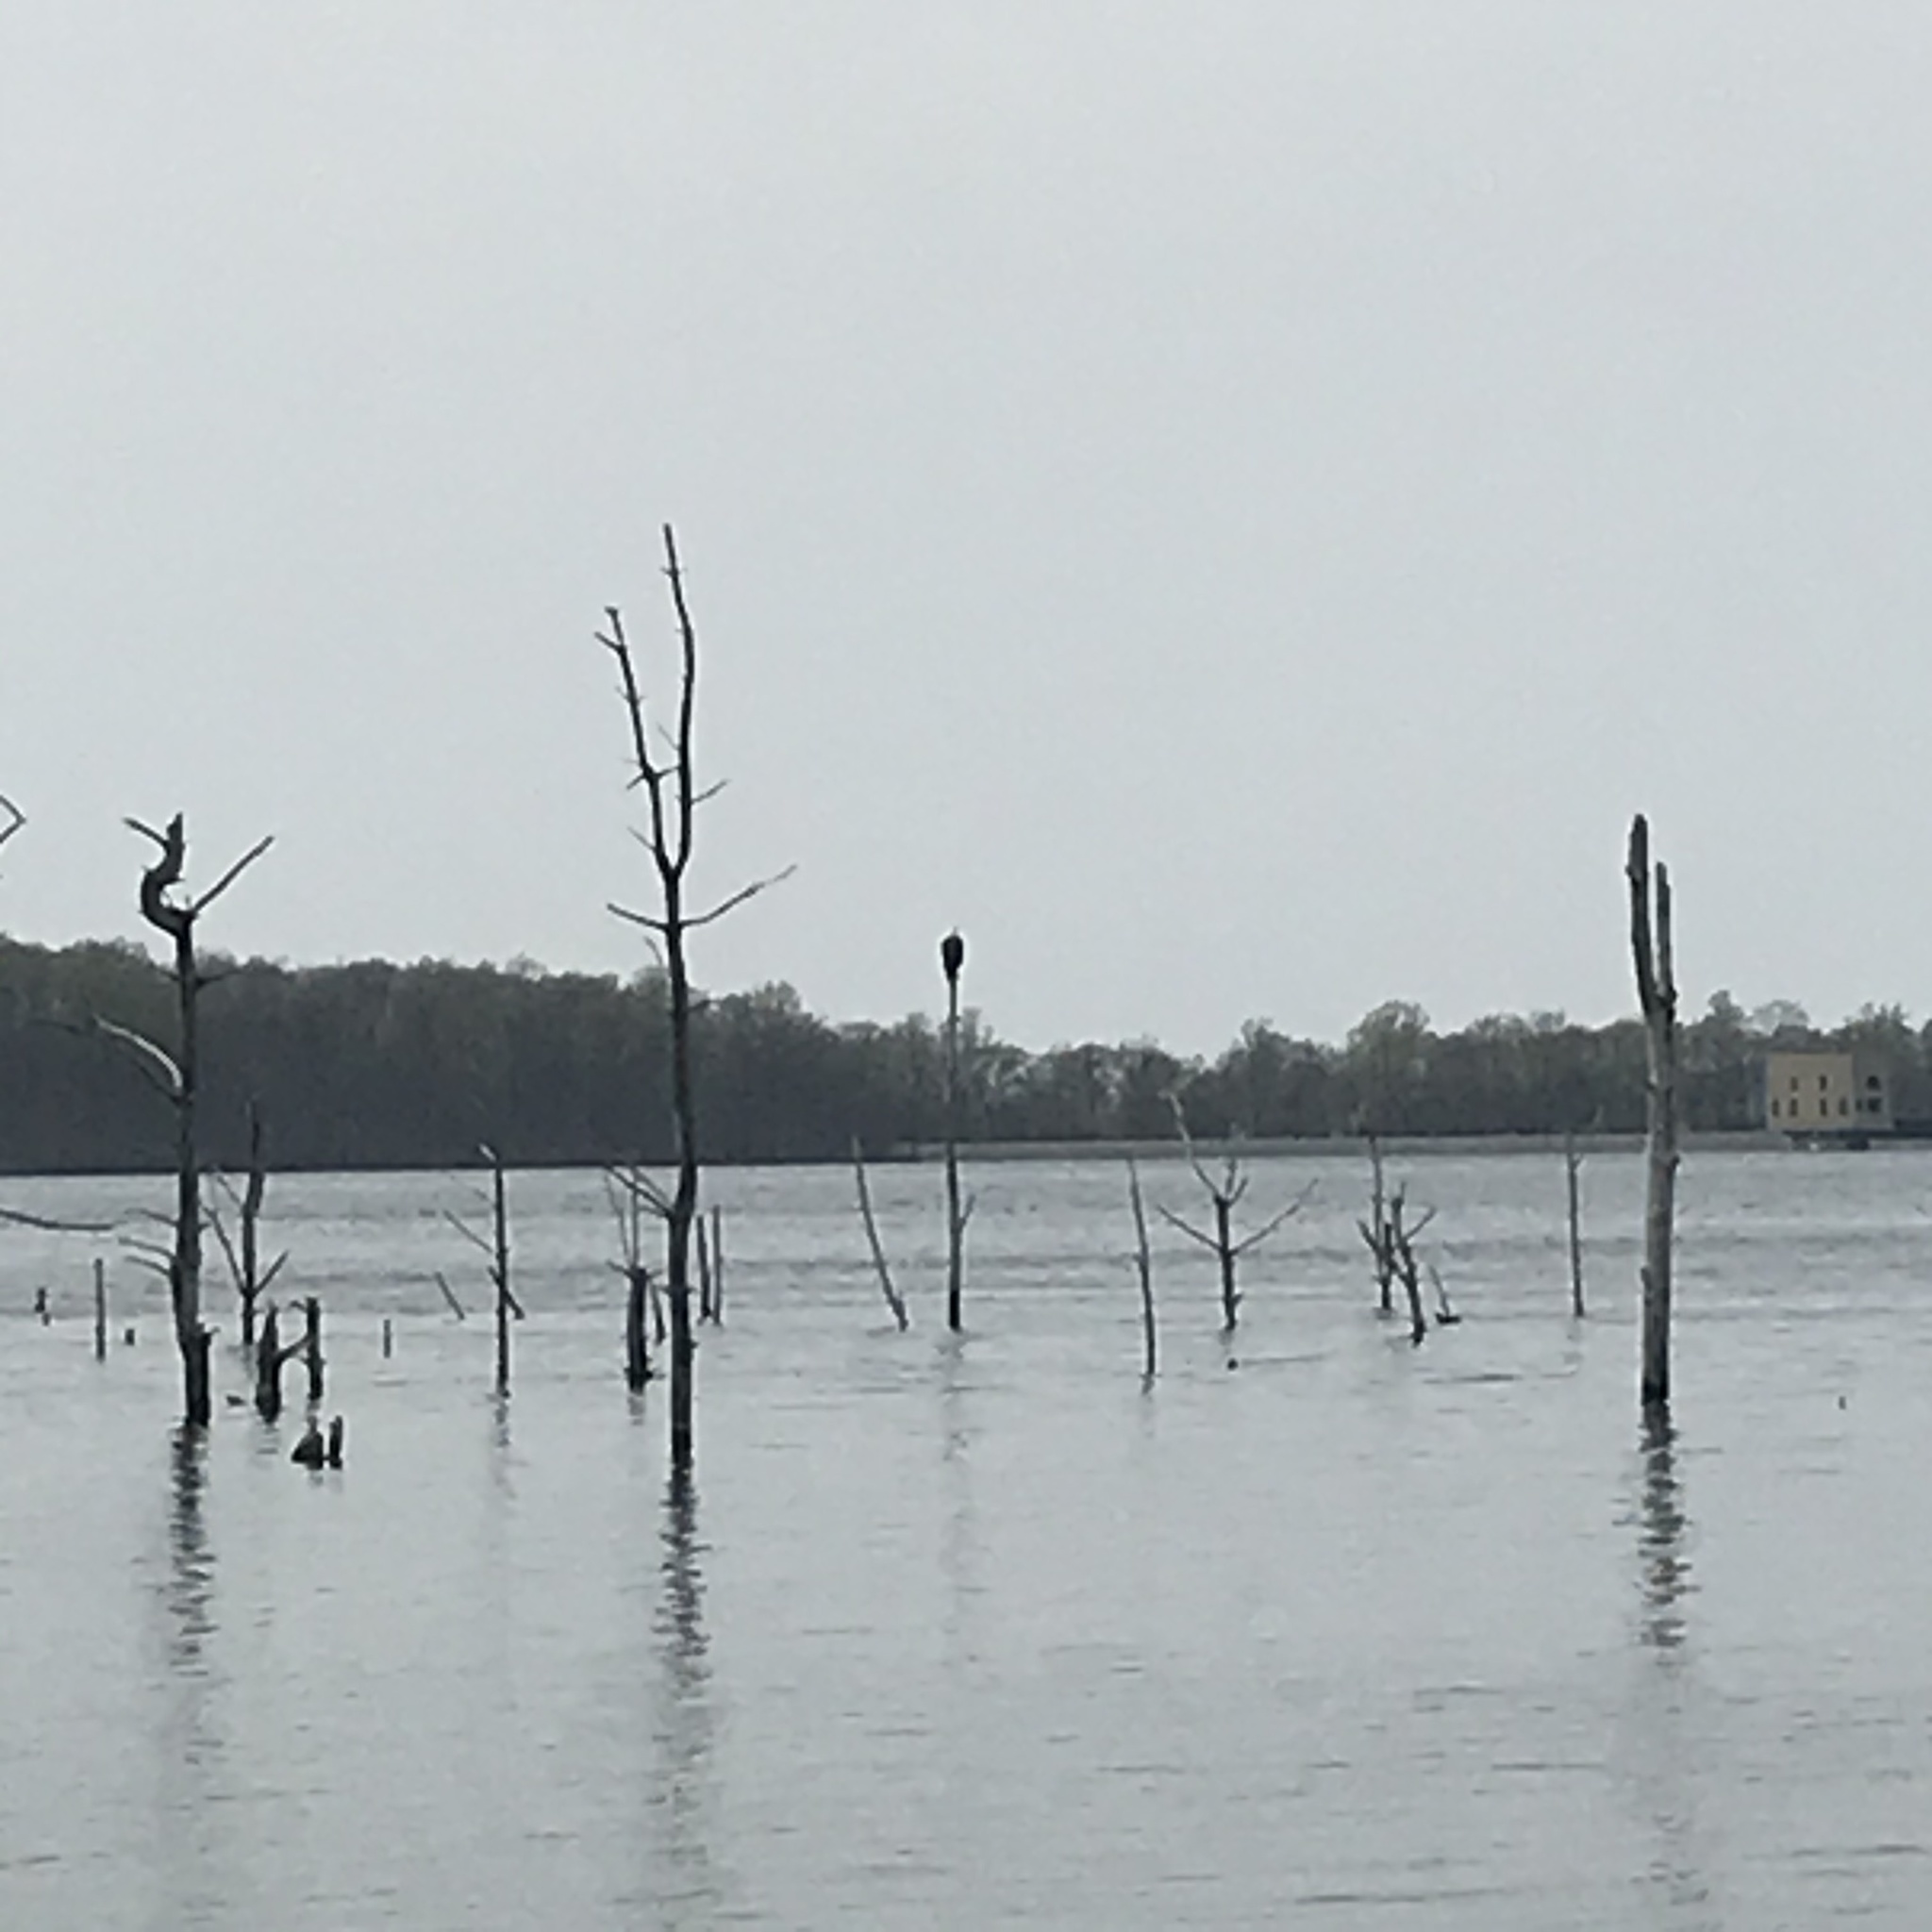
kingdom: Animalia
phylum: Chordata
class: Aves
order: Accipitriformes
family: Accipitridae
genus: Haliaeetus
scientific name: Haliaeetus leucocephalus
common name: Bald eagle
